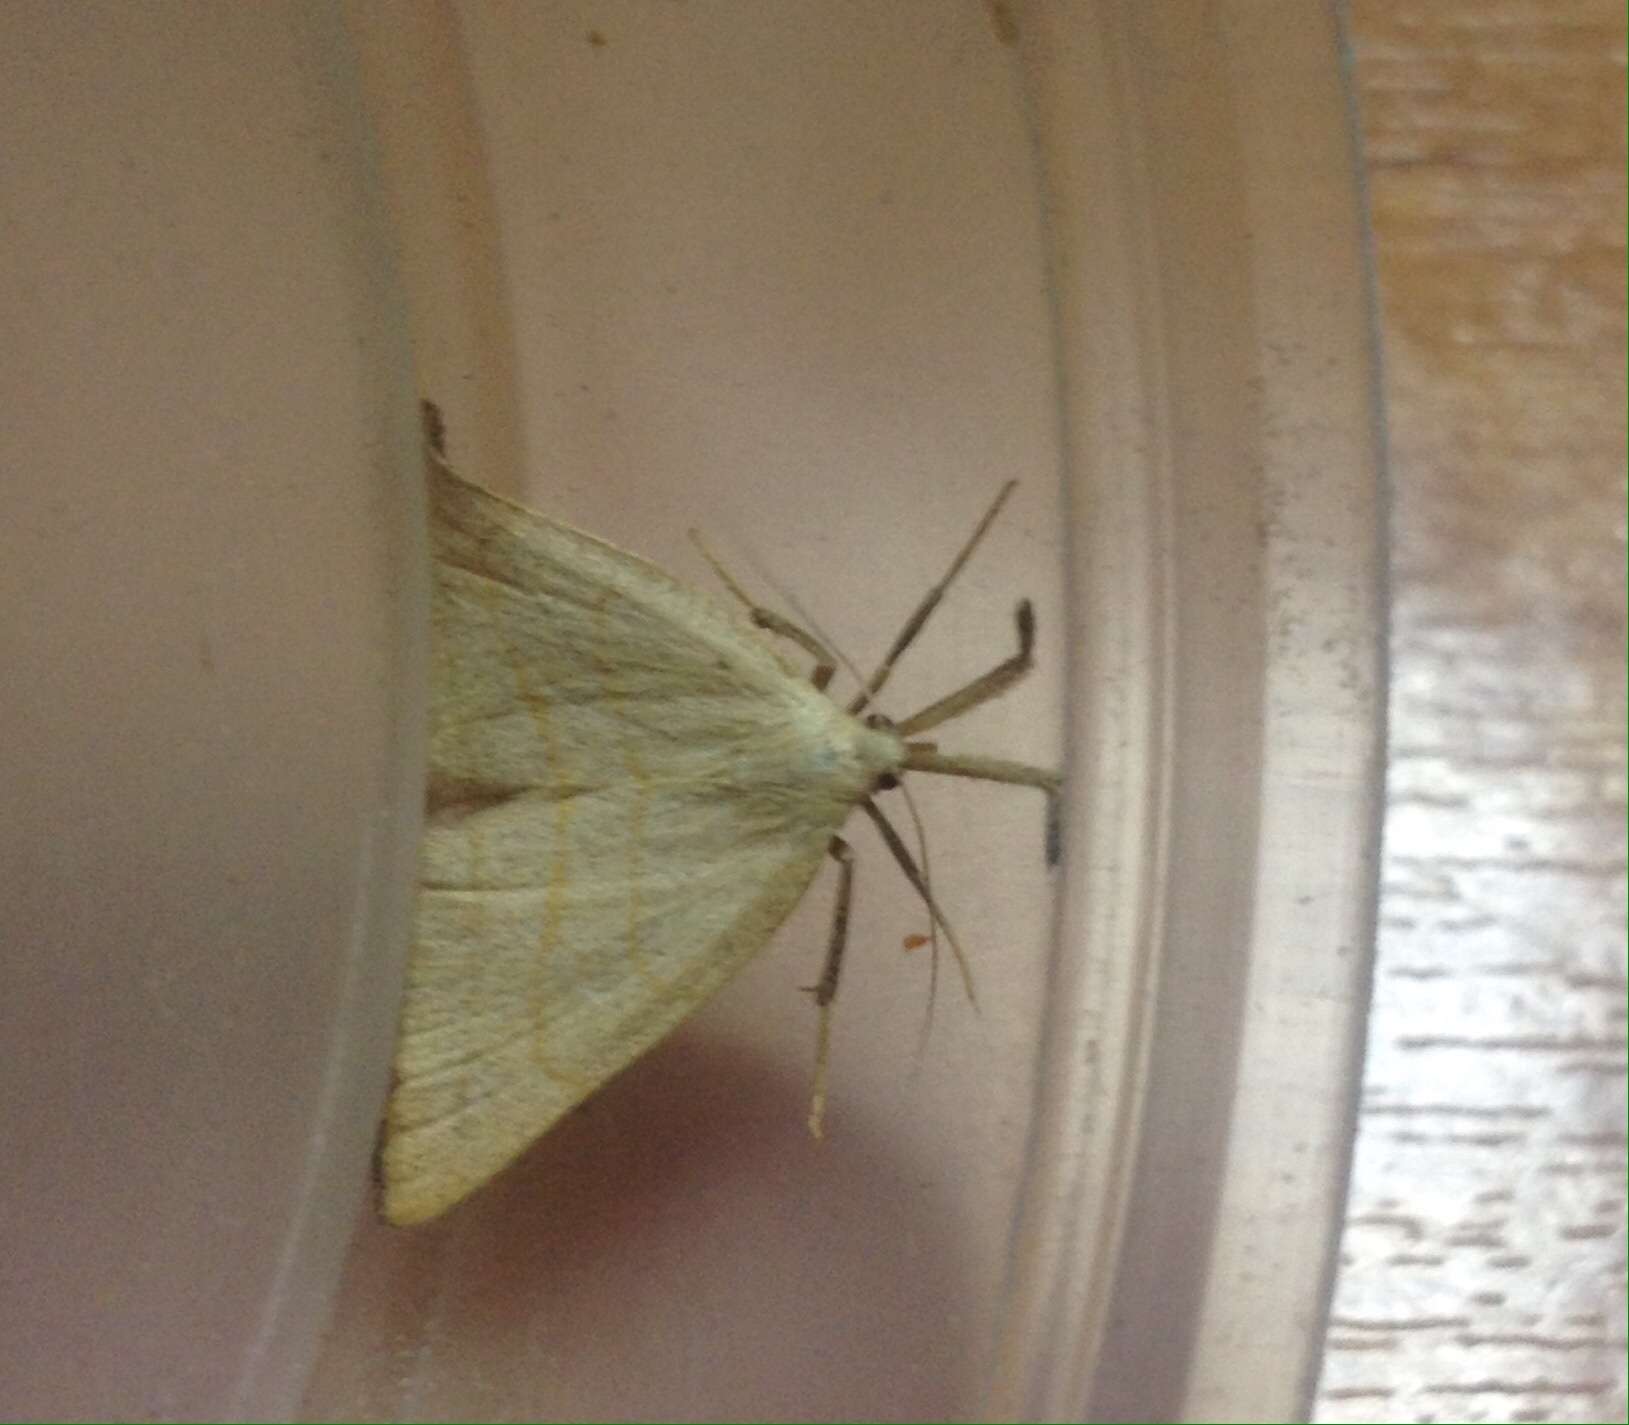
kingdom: Animalia
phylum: Arthropoda
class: Insecta
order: Lepidoptera
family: Erebidae
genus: Polypogon
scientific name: Polypogon tentacularia
